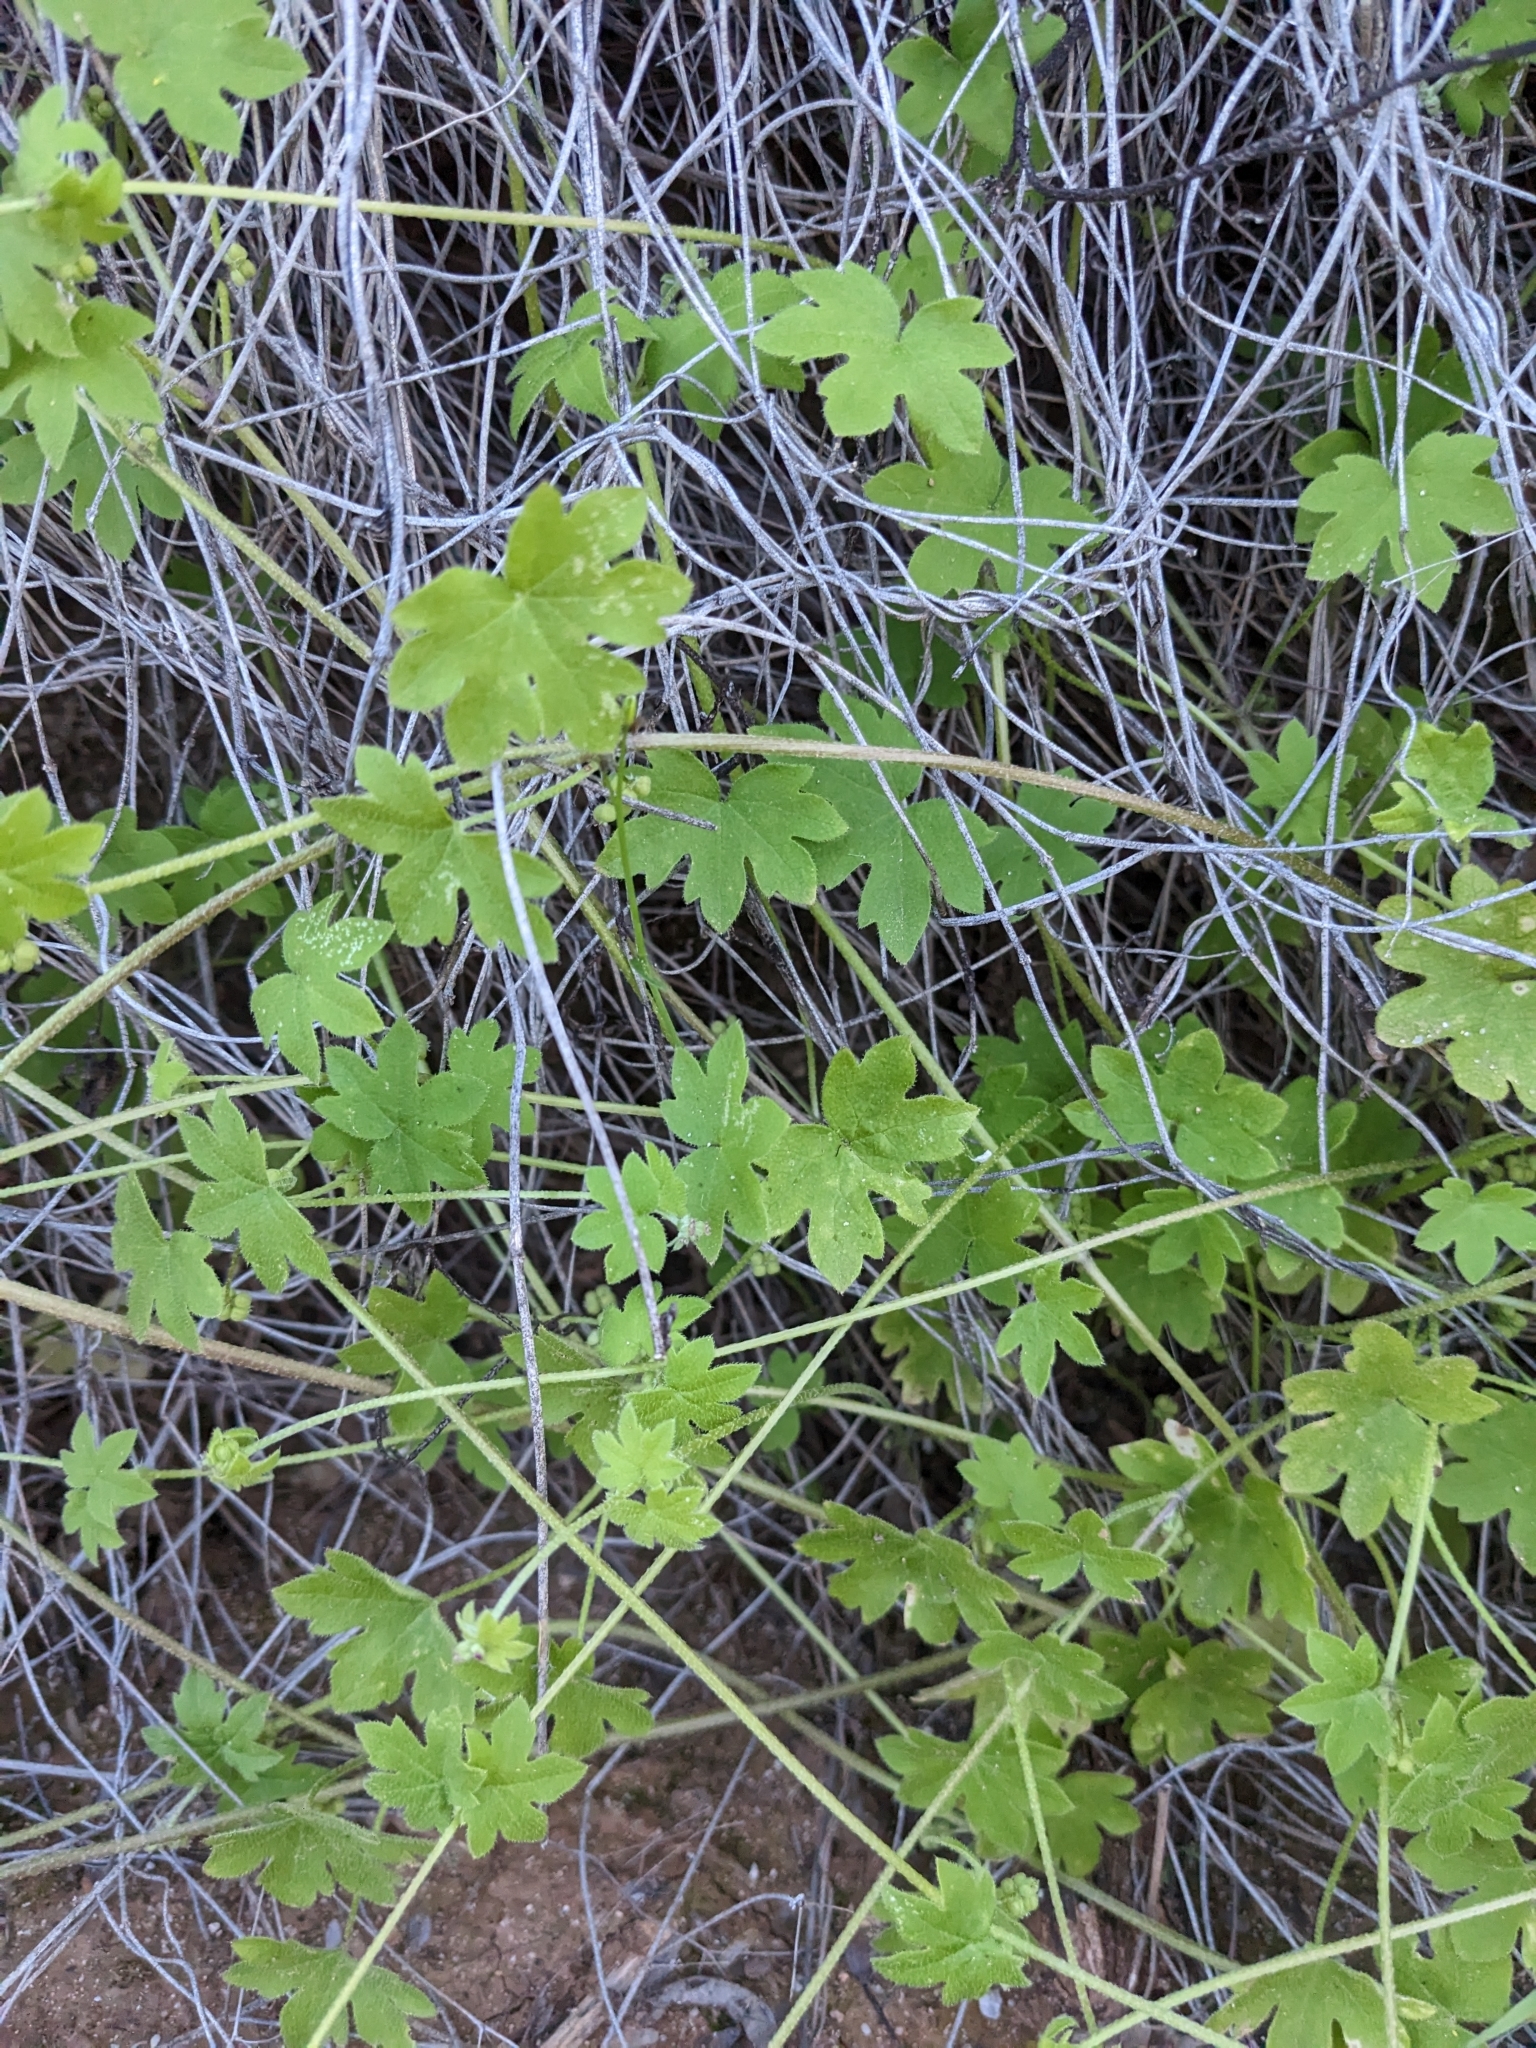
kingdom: Plantae
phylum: Tracheophyta
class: Magnoliopsida
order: Apiales
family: Apiaceae
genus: Bowlesia
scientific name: Bowlesia incana
